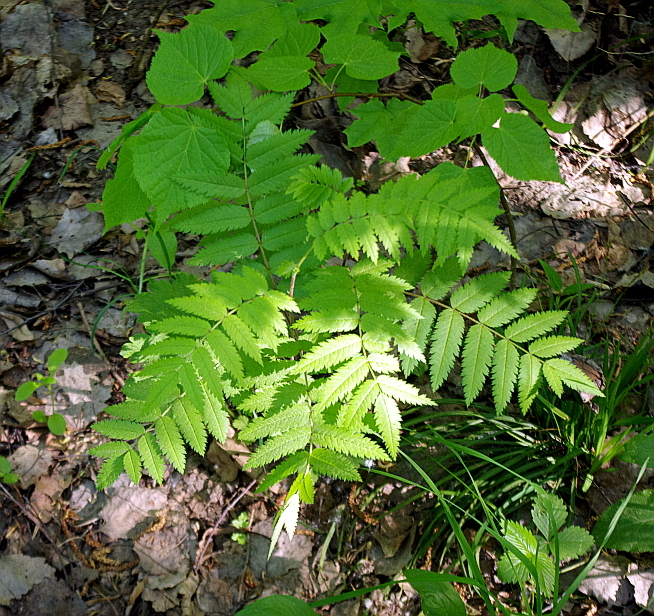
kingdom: Plantae
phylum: Tracheophyta
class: Magnoliopsida
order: Rosales
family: Rosaceae
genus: Sorbus
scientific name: Sorbus aucuparia
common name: Rowan
